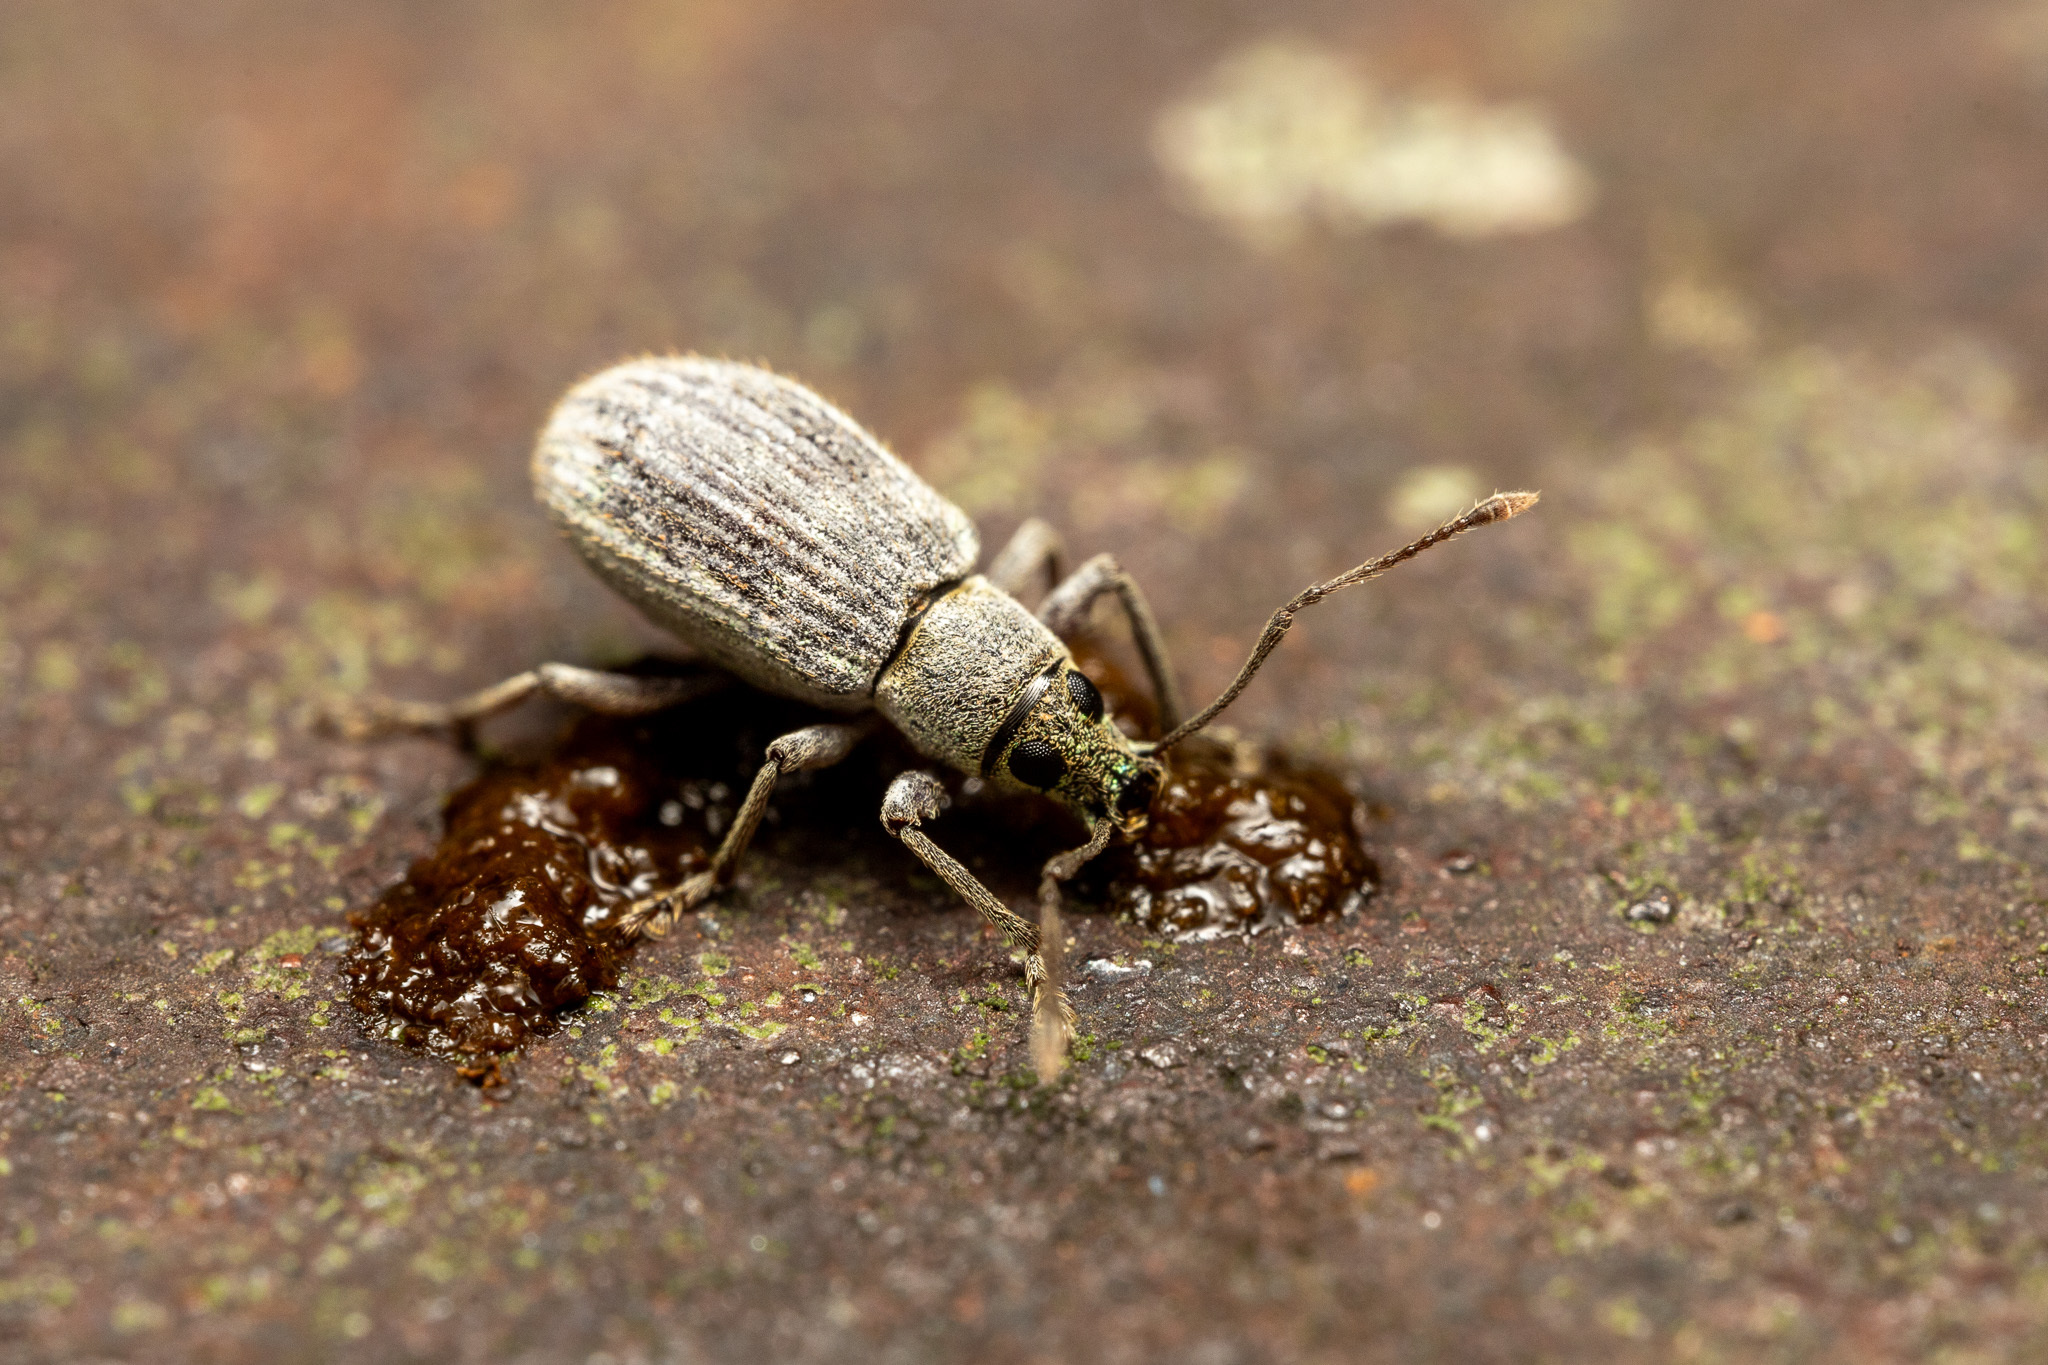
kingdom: Animalia
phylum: Arthropoda
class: Insecta
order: Coleoptera
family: Curculionidae
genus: Cyrtepistomus
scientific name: Cyrtepistomus castaneus
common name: Weevil
